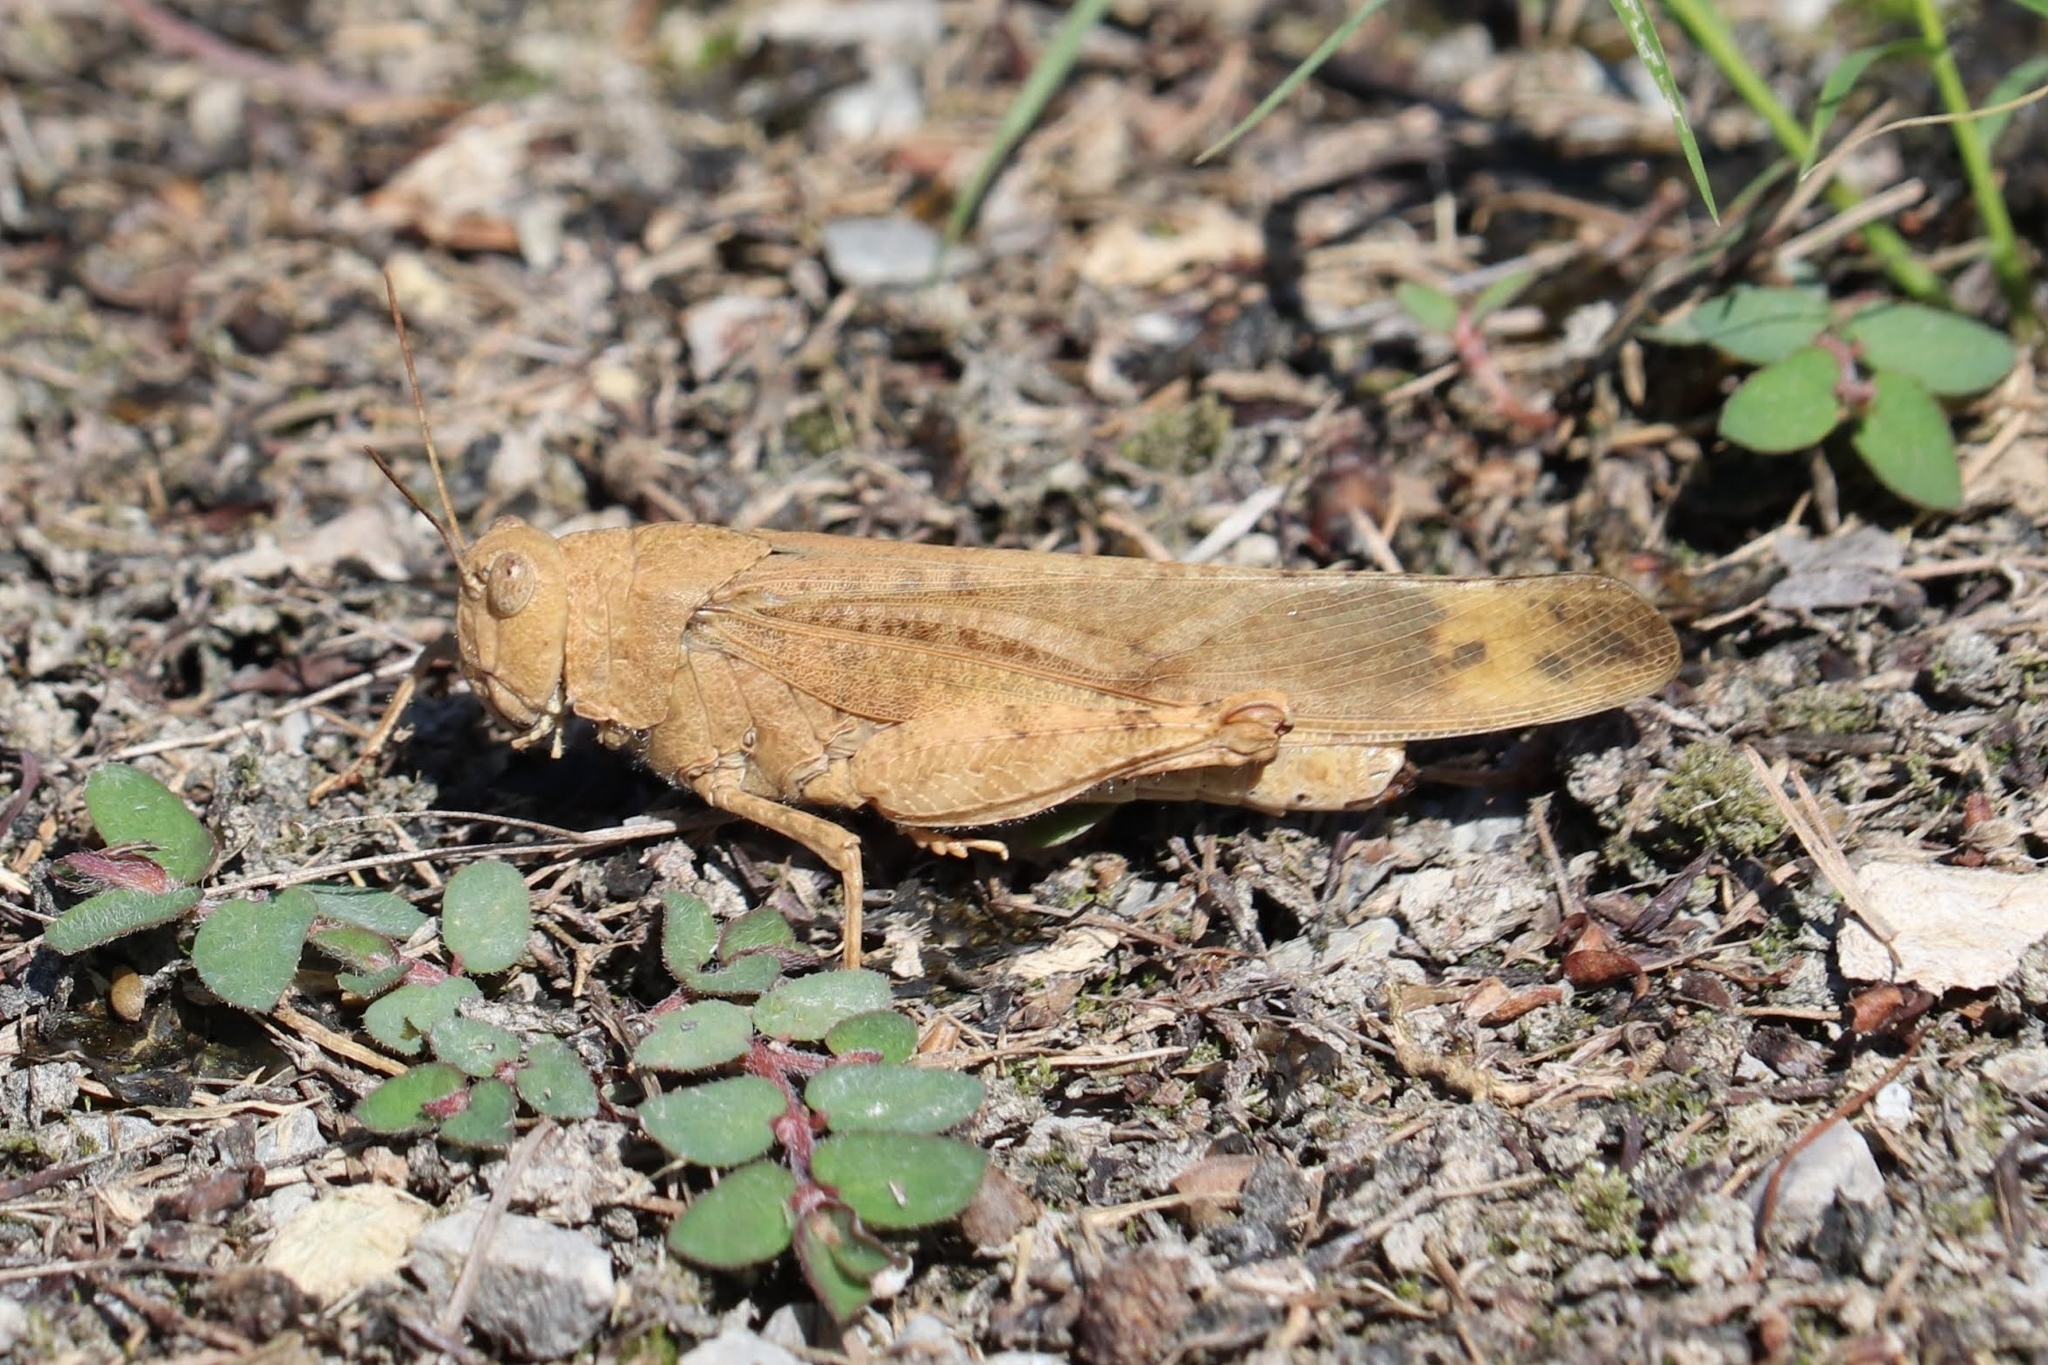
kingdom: Animalia
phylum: Arthropoda
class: Insecta
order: Orthoptera
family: Acrididae
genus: Dissosteira
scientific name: Dissosteira carolina
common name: Carolina grasshopper
